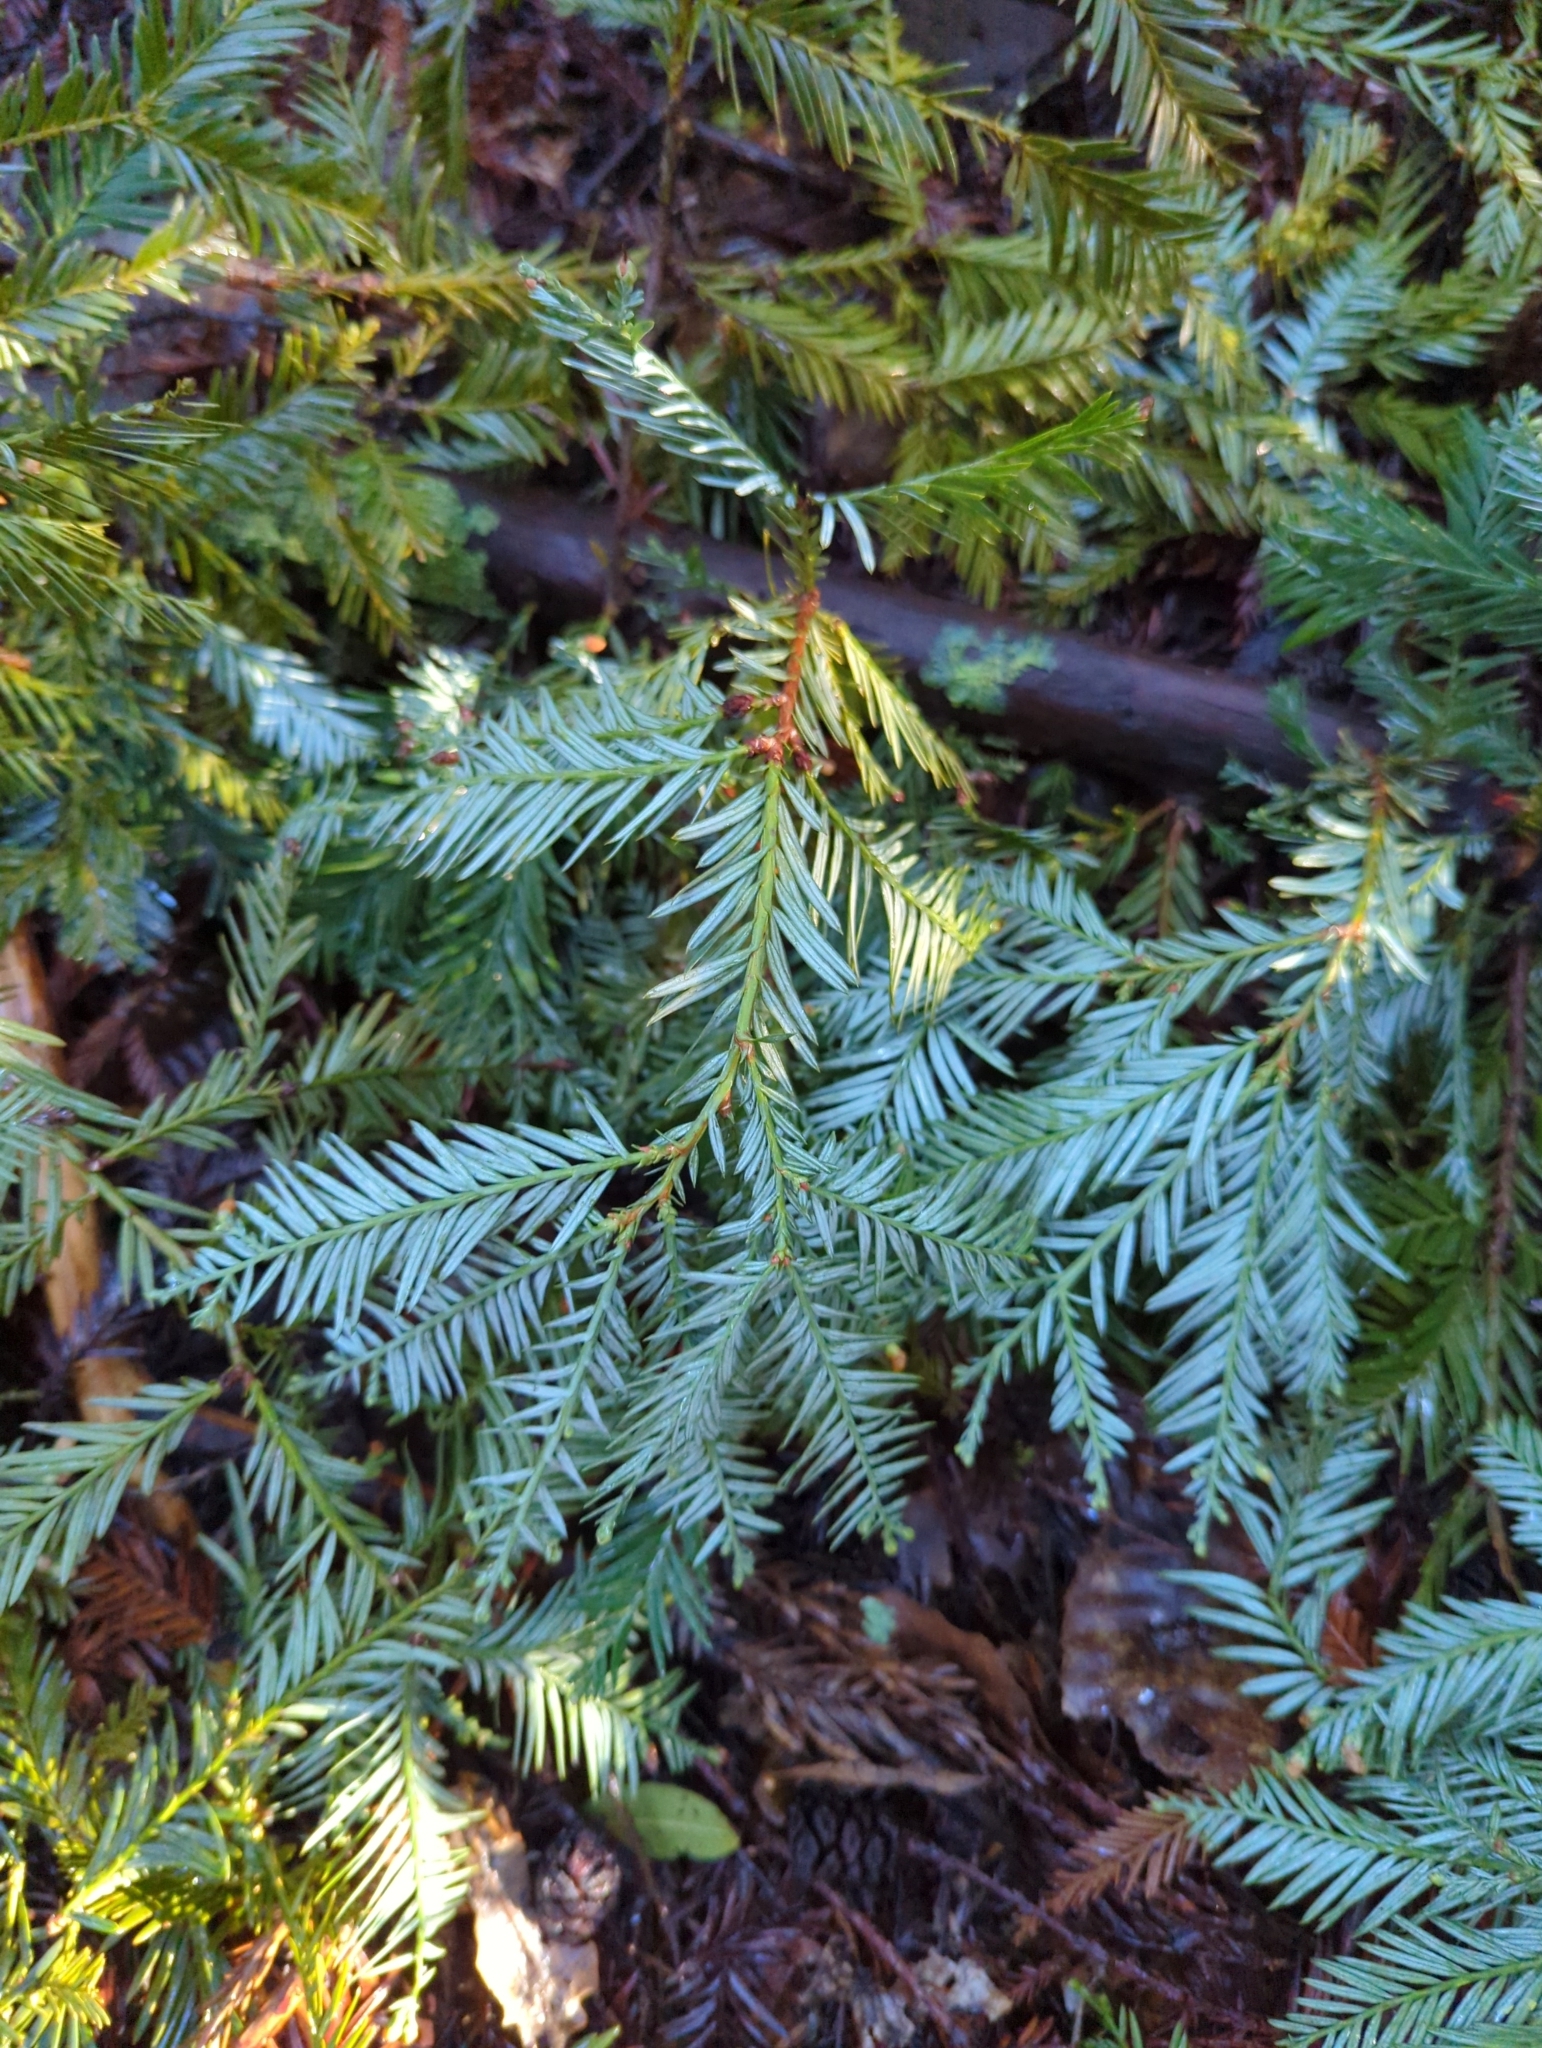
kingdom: Plantae
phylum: Tracheophyta
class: Pinopsida
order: Pinales
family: Cupressaceae
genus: Sequoia
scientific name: Sequoia sempervirens
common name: Coast redwood
